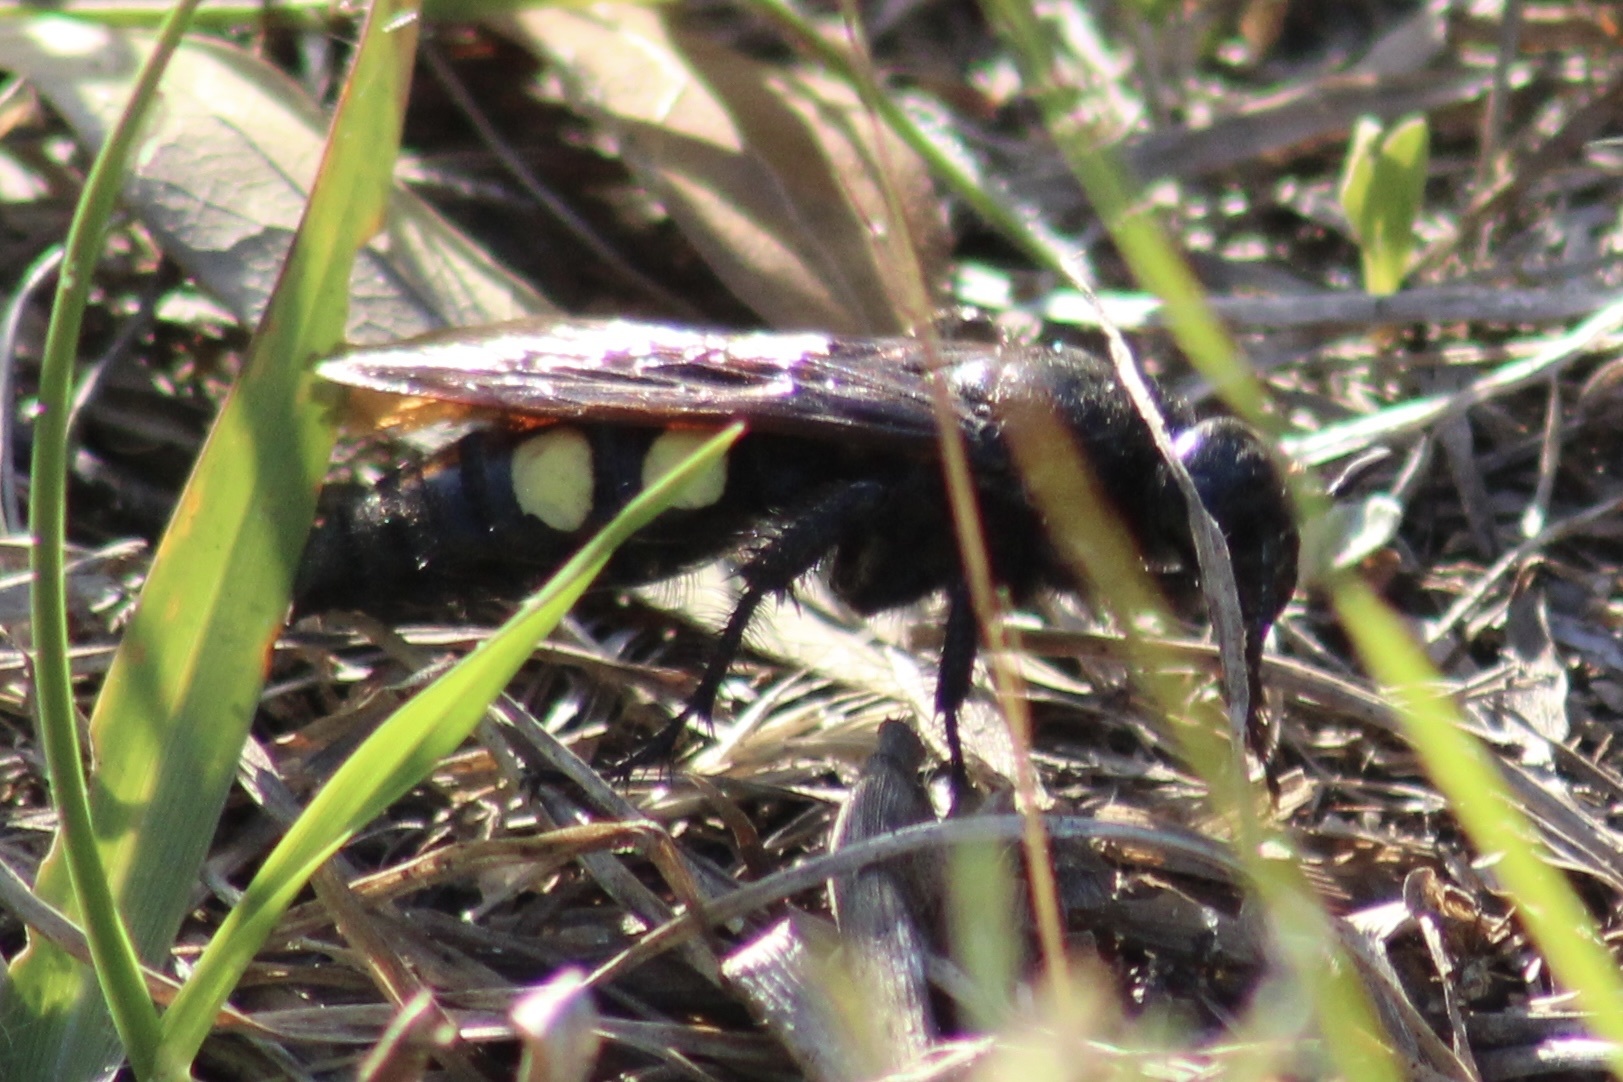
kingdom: Animalia
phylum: Arthropoda
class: Insecta
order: Hymenoptera
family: Scoliidae
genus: Pygodasis
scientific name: Pygodasis
